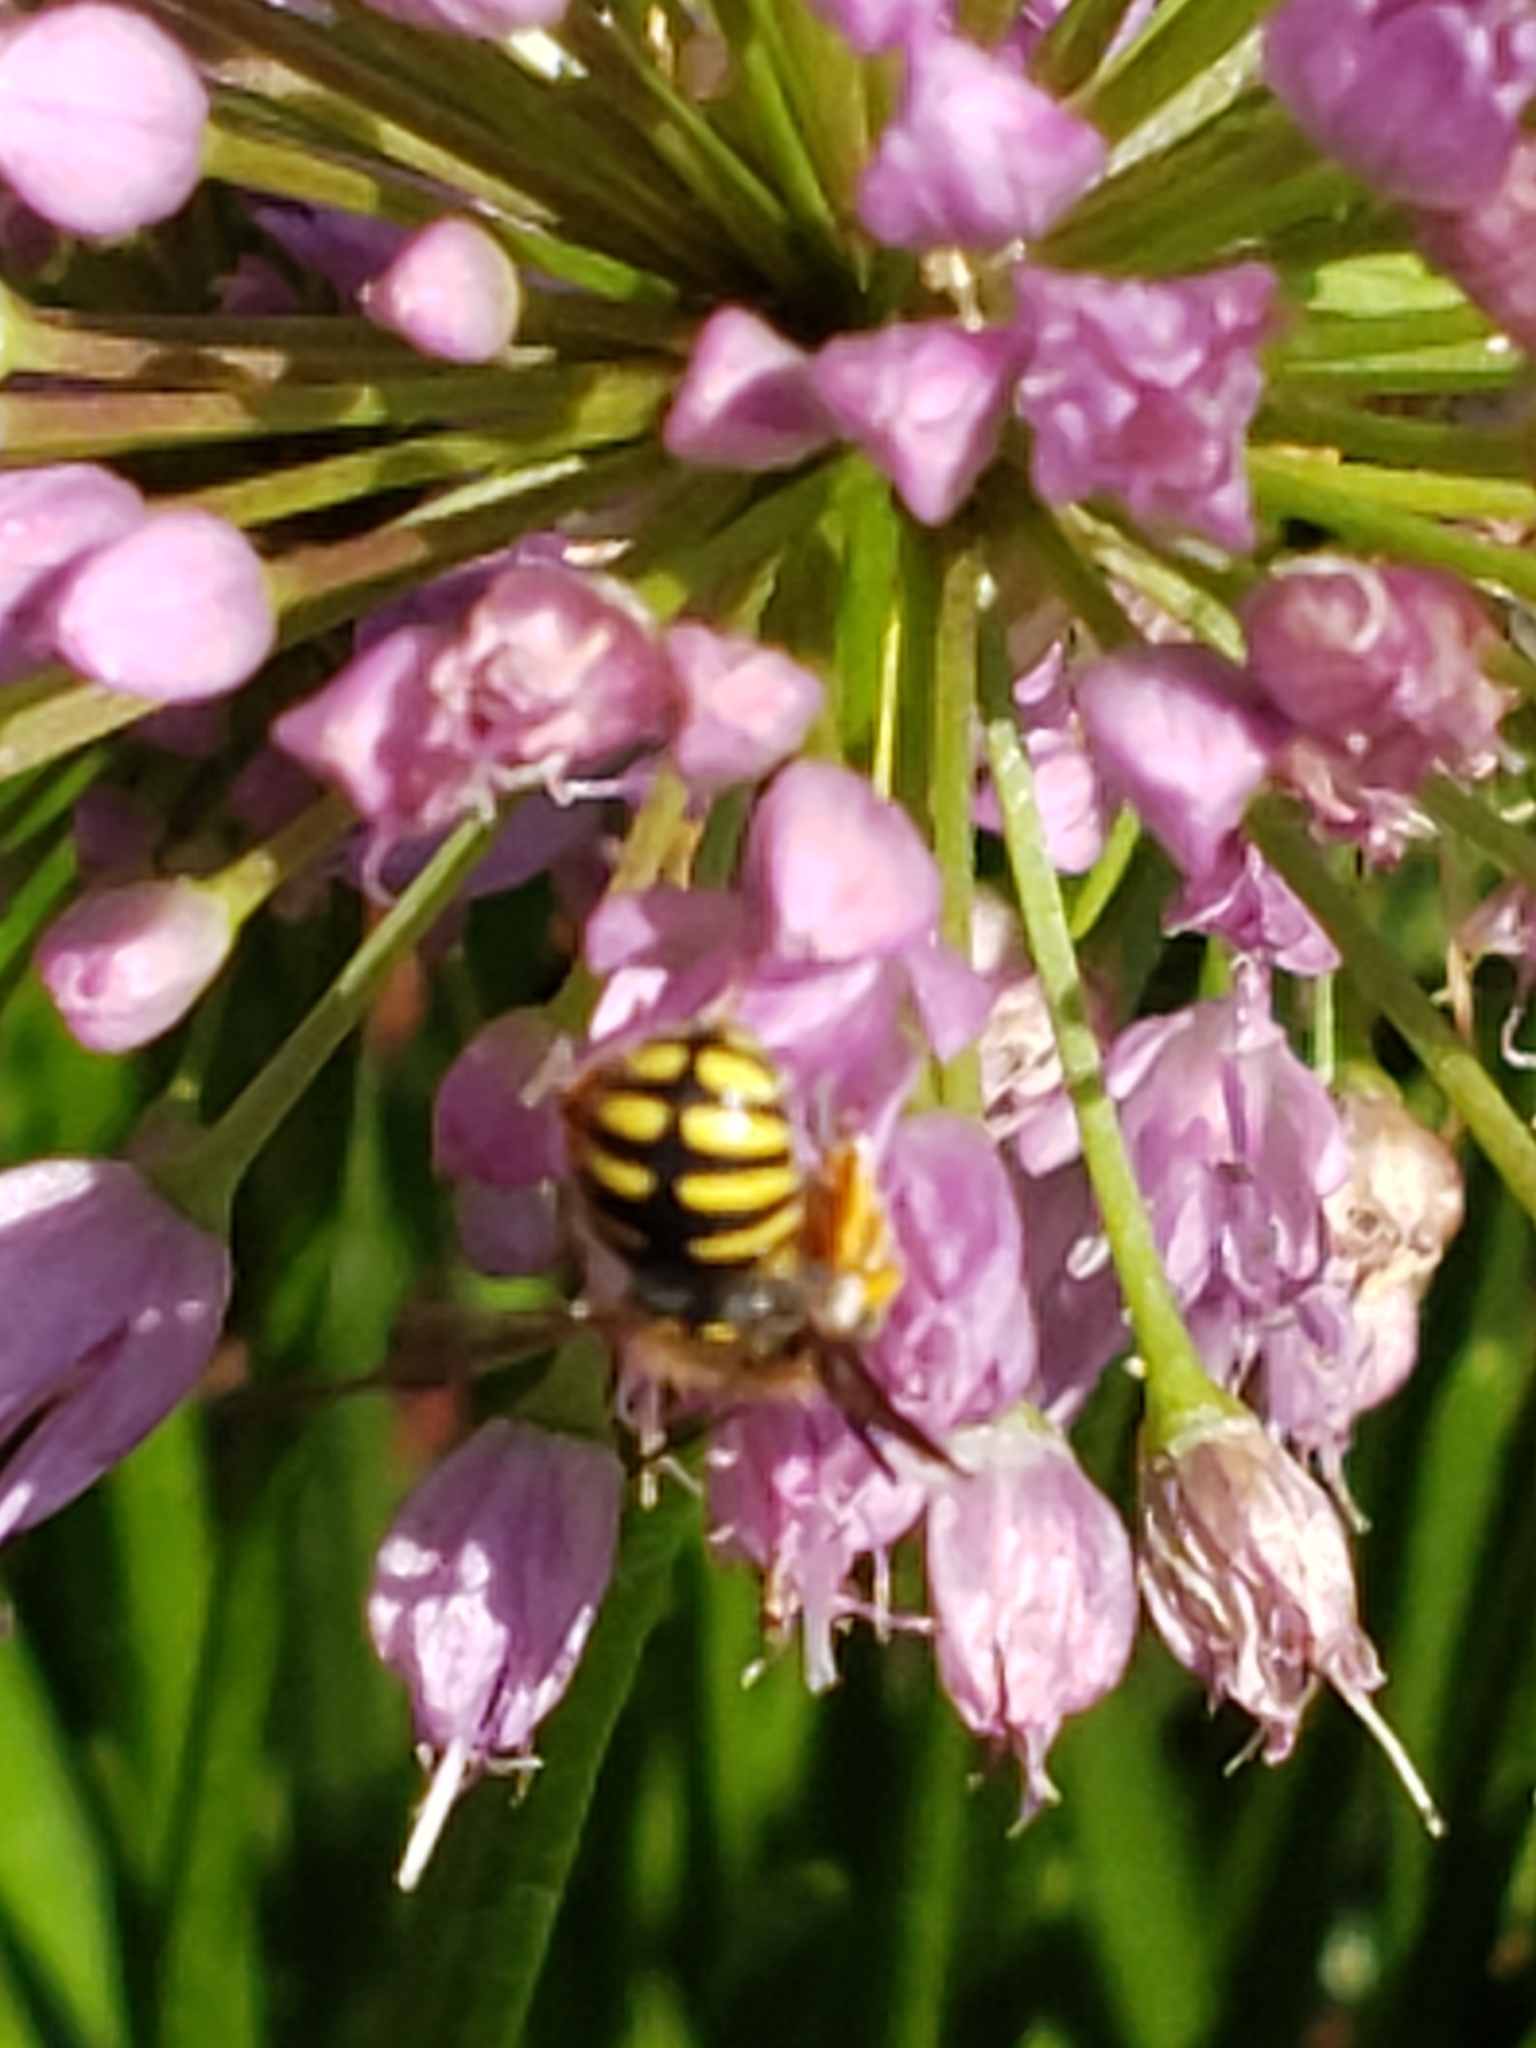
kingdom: Animalia
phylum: Arthropoda
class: Insecta
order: Hymenoptera
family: Megachilidae
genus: Anthidium
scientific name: Anthidium oblongatum
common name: Oblong wool carder bee
